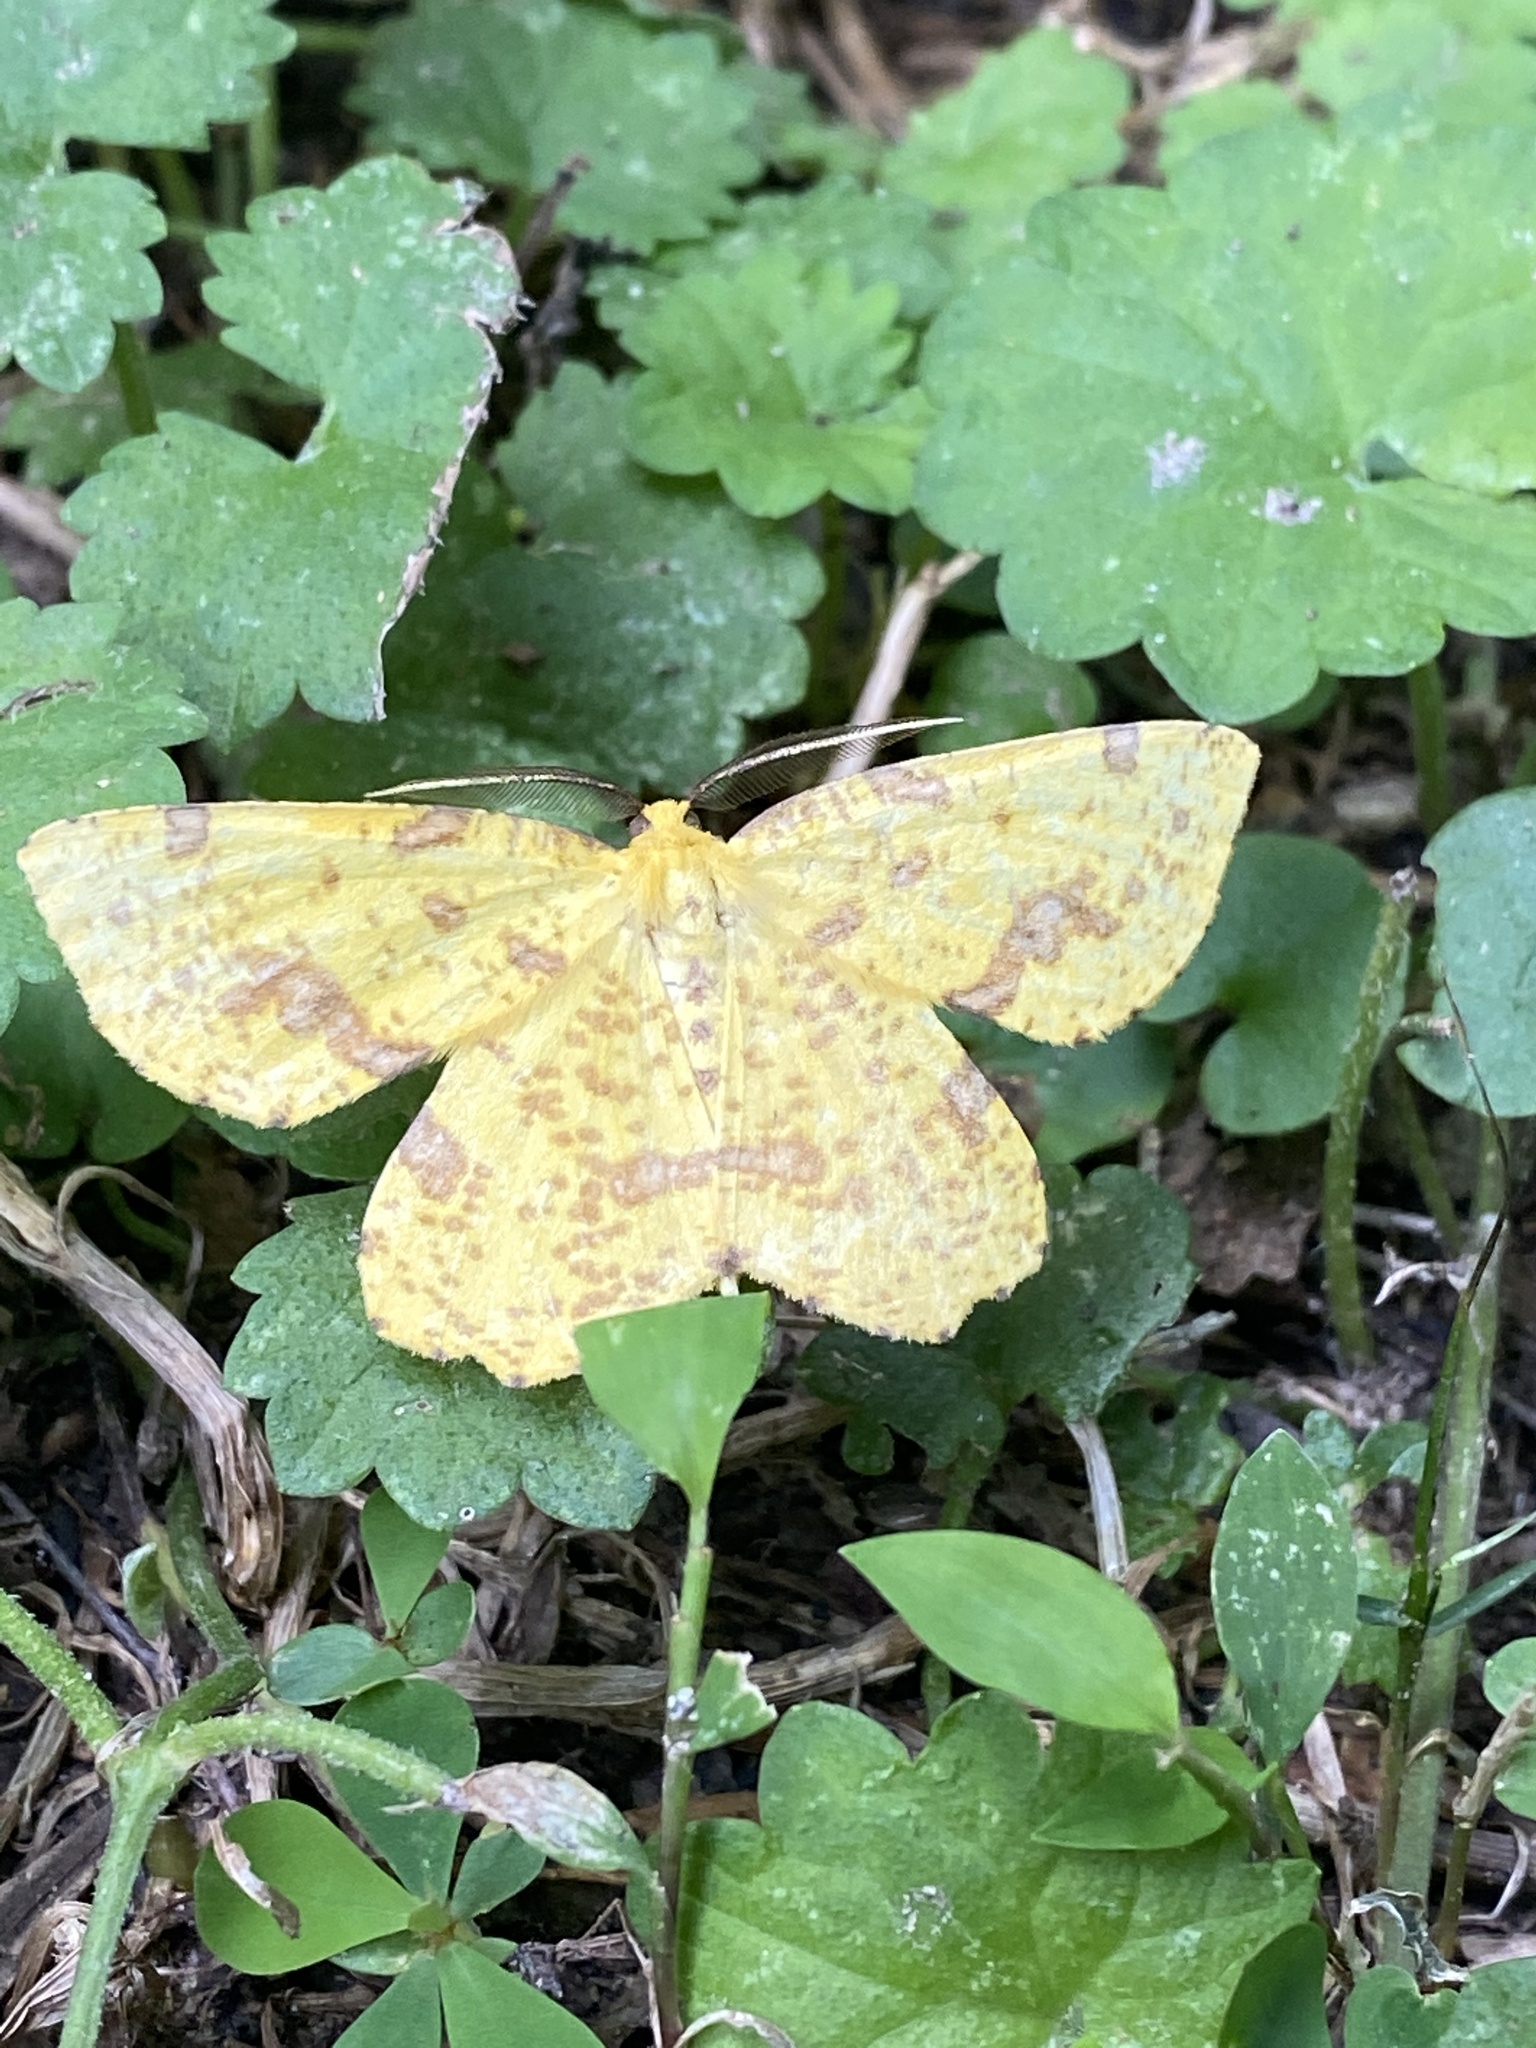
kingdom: Animalia
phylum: Arthropoda
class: Insecta
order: Lepidoptera
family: Geometridae
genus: Xanthotype
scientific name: Xanthotype
